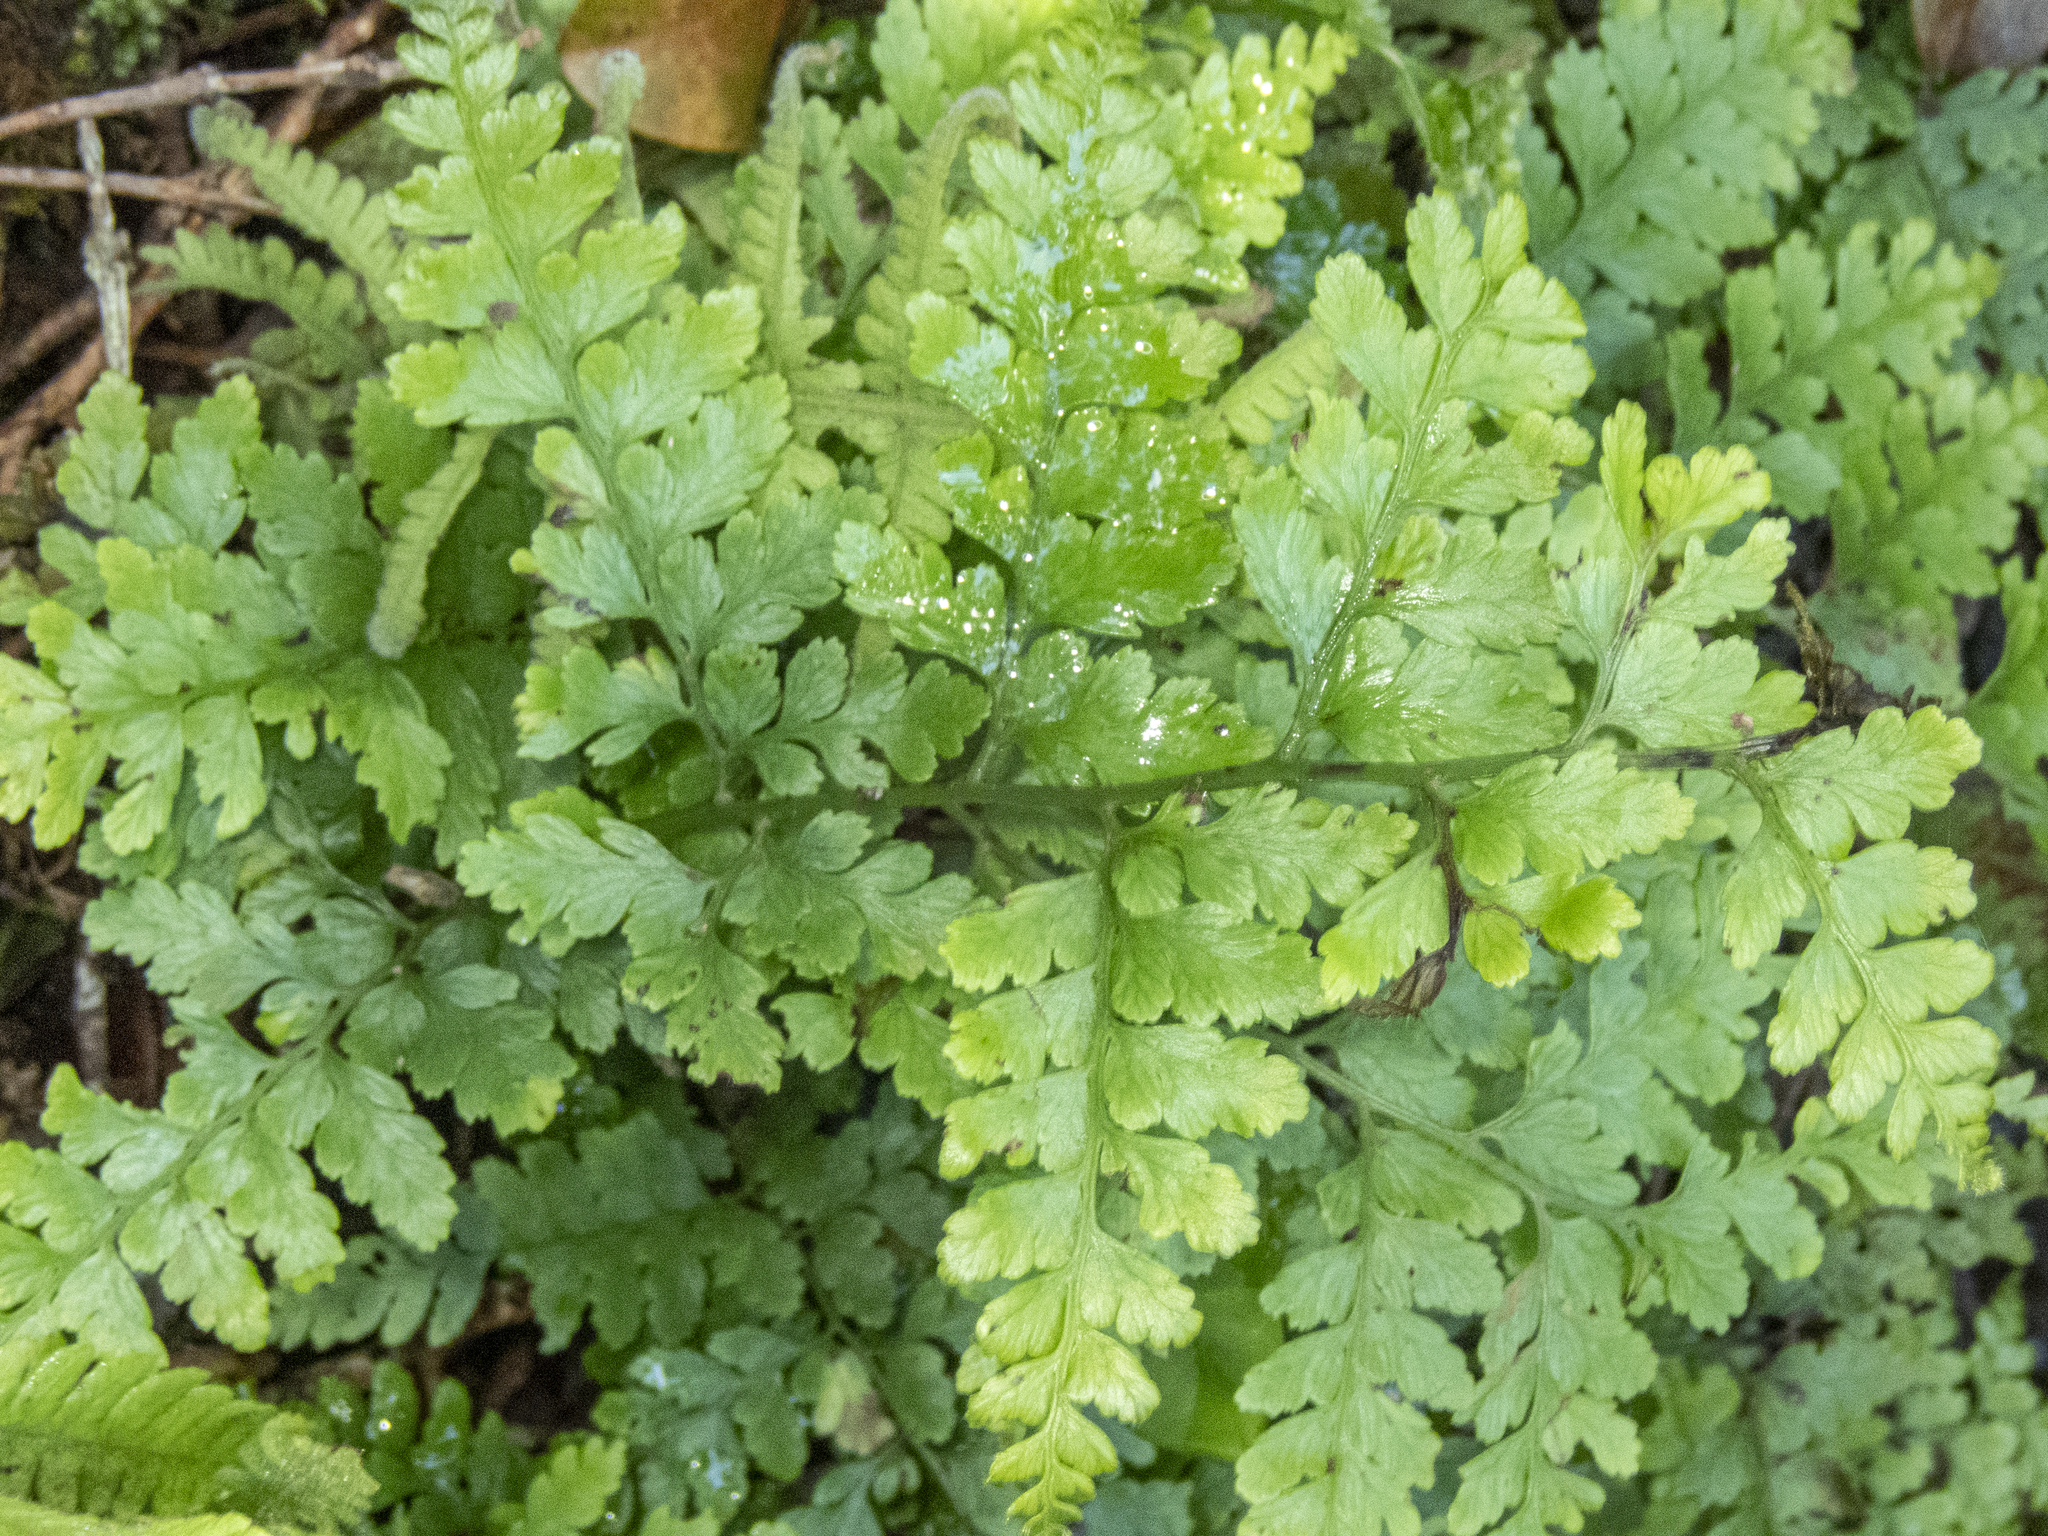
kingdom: Plantae
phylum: Tracheophyta
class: Polypodiopsida
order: Polypodiales
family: Dennstaedtiaceae
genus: Microlepia
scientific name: Microlepia setosa
